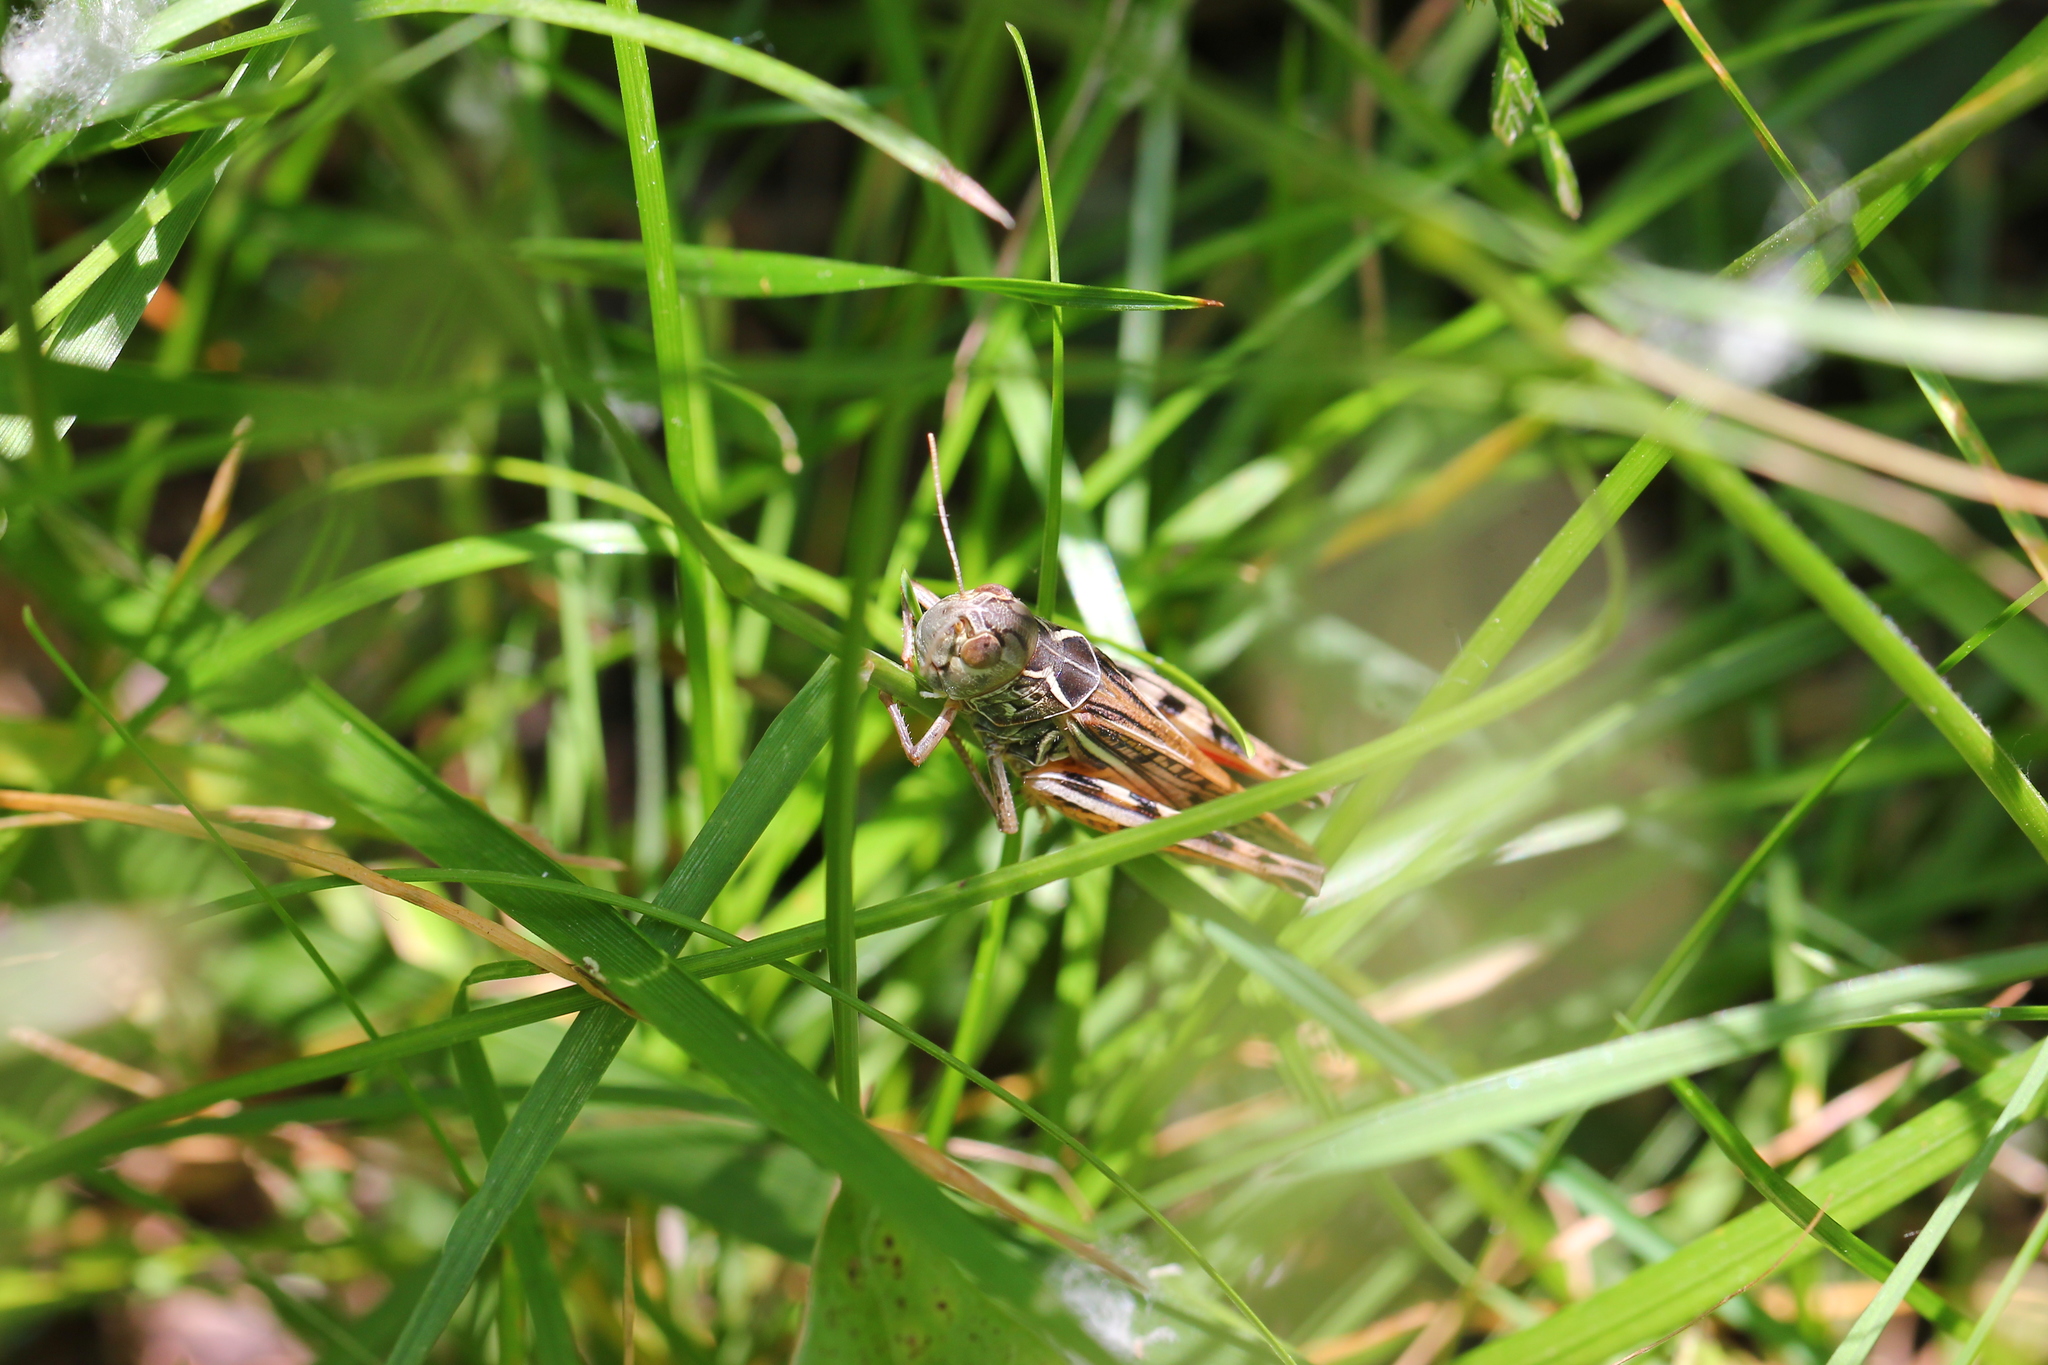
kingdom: Animalia
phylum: Arthropoda
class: Insecta
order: Orthoptera
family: Acrididae
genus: Arcyptera
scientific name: Arcyptera microptera
